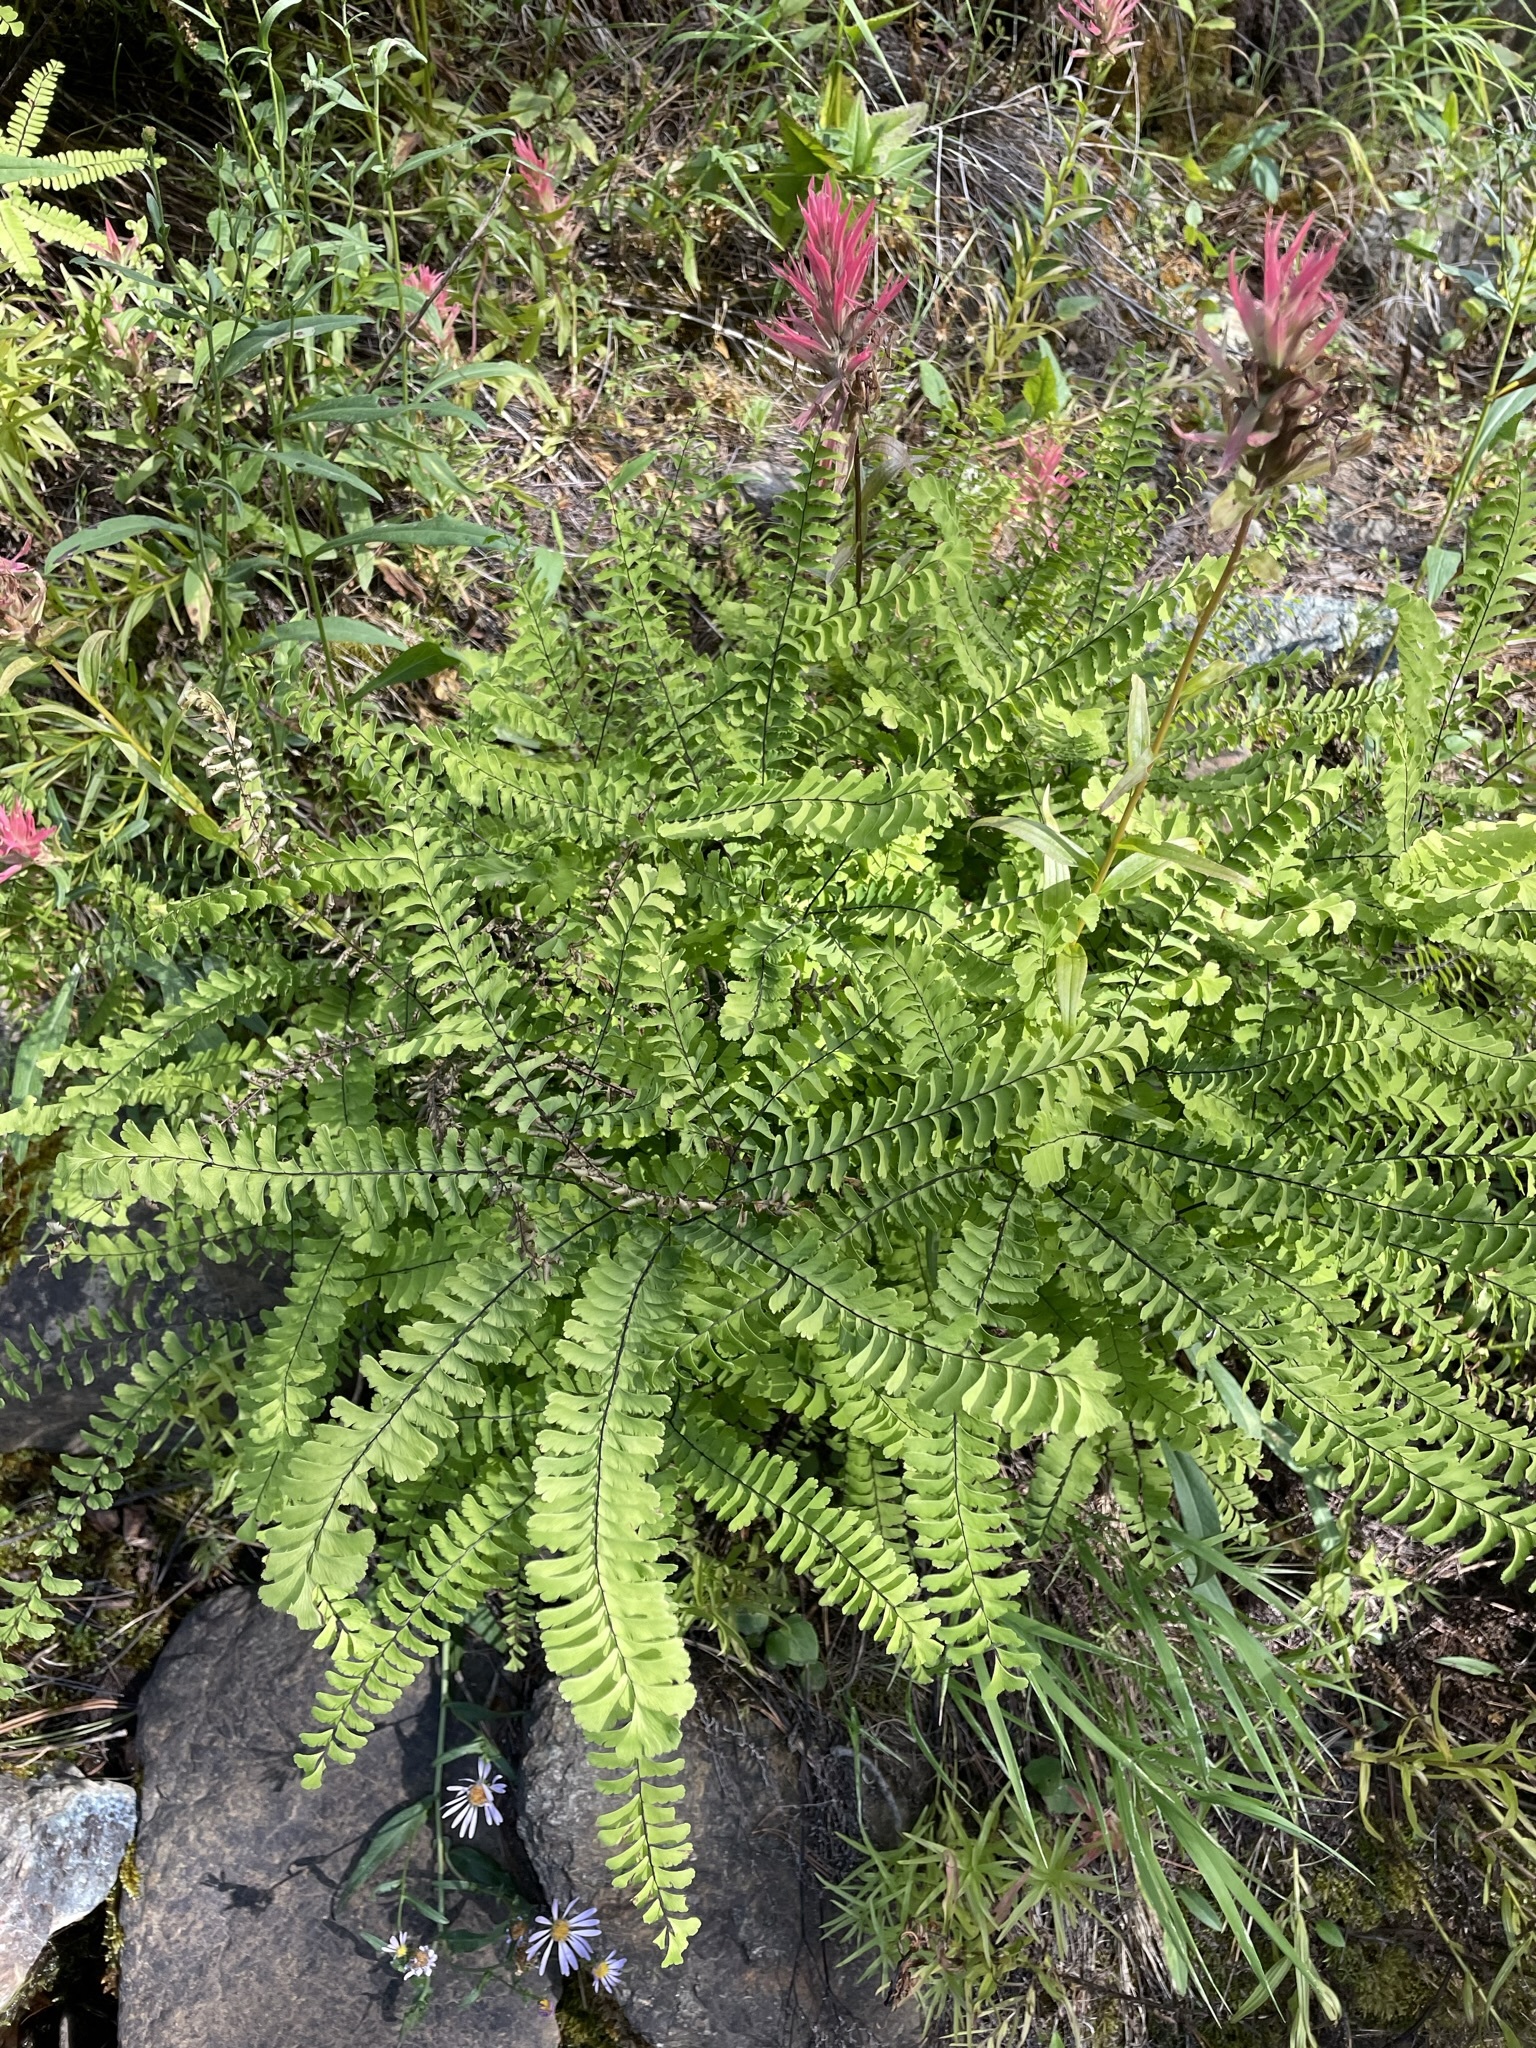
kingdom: Plantae
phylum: Tracheophyta
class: Polypodiopsida
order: Polypodiales
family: Pteridaceae
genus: Adiantum
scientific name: Adiantum aleuticum
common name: Aleutian maidenhair fern
